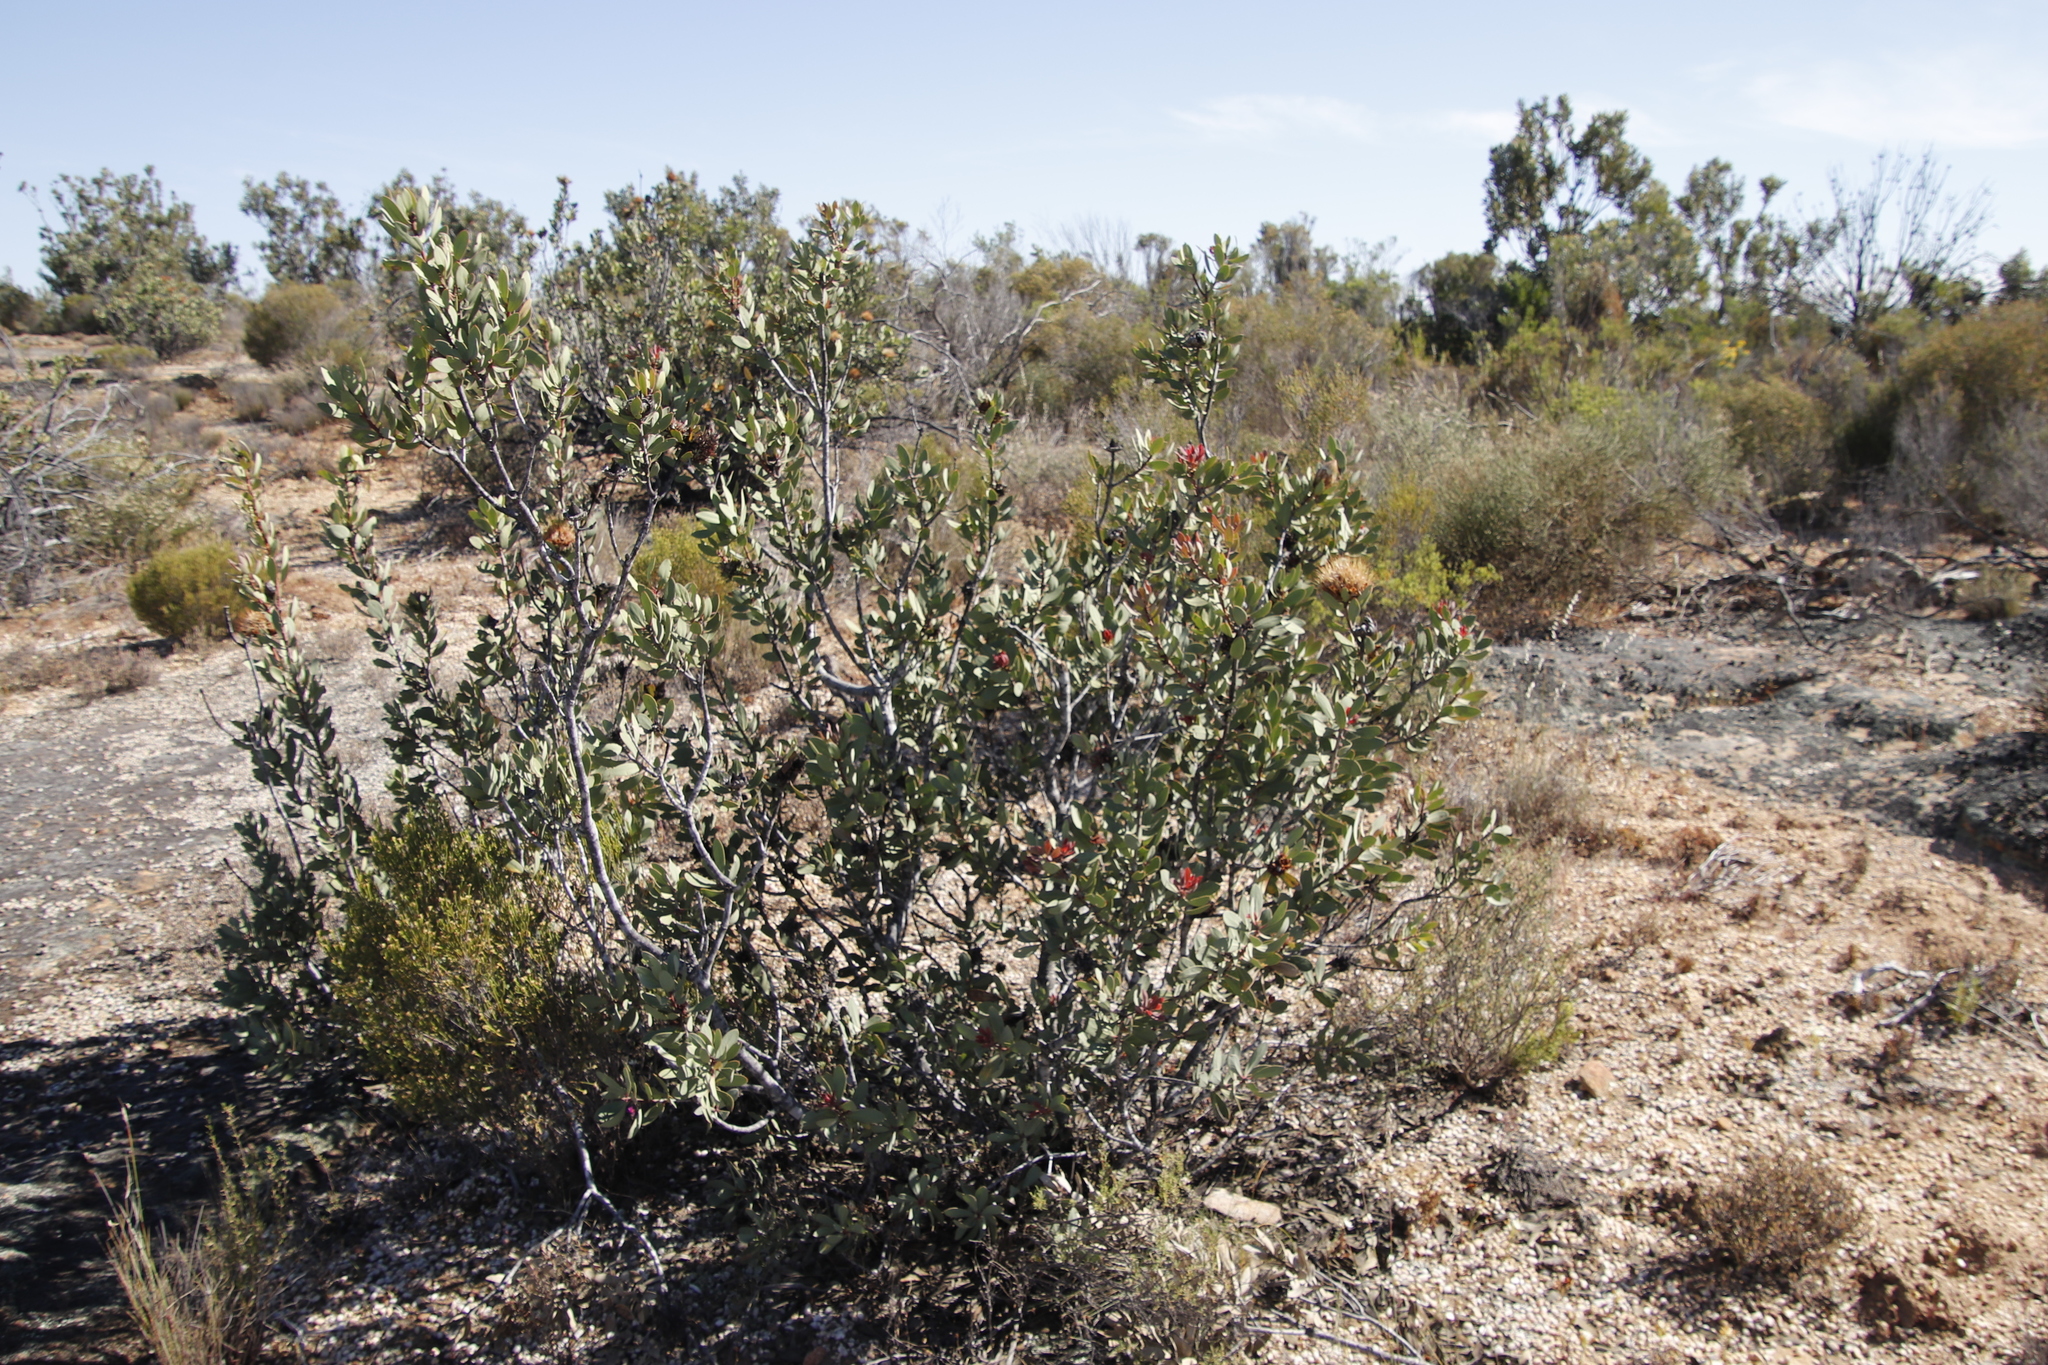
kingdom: Plantae
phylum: Tracheophyta
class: Magnoliopsida
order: Proteales
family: Proteaceae
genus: Protea
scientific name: Protea glabra
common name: Chestnut sugarbush
